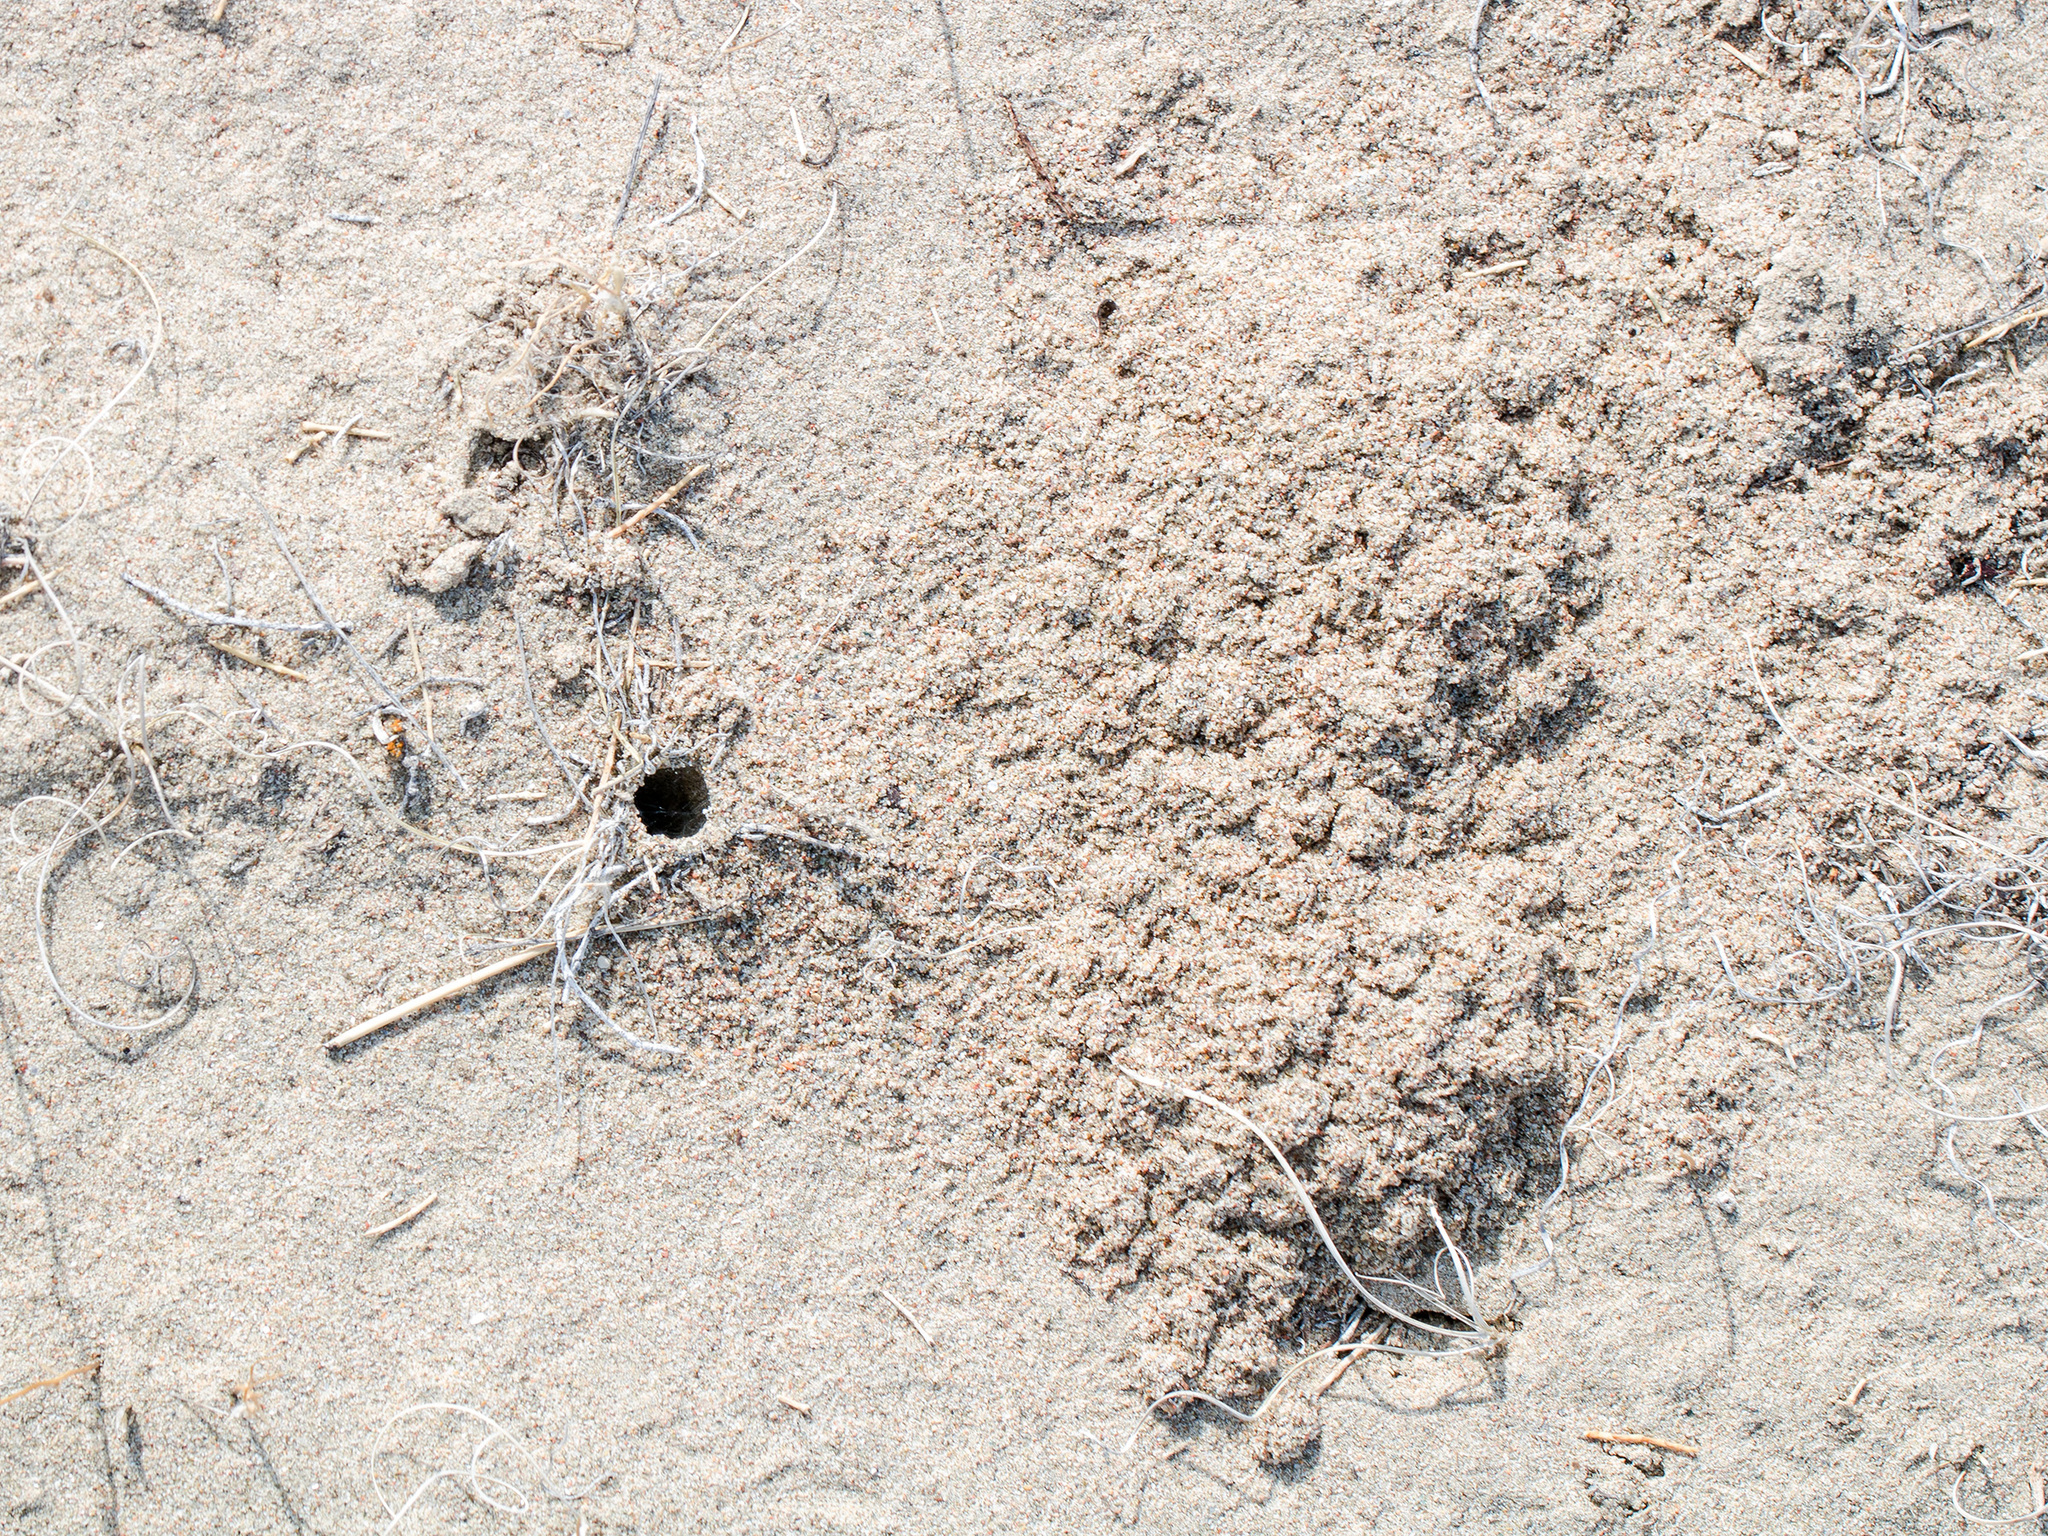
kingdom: Animalia
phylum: Arthropoda
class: Arachnida
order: Araneae
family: Lycosidae
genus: Karakumosa
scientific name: Karakumosa alticeps
